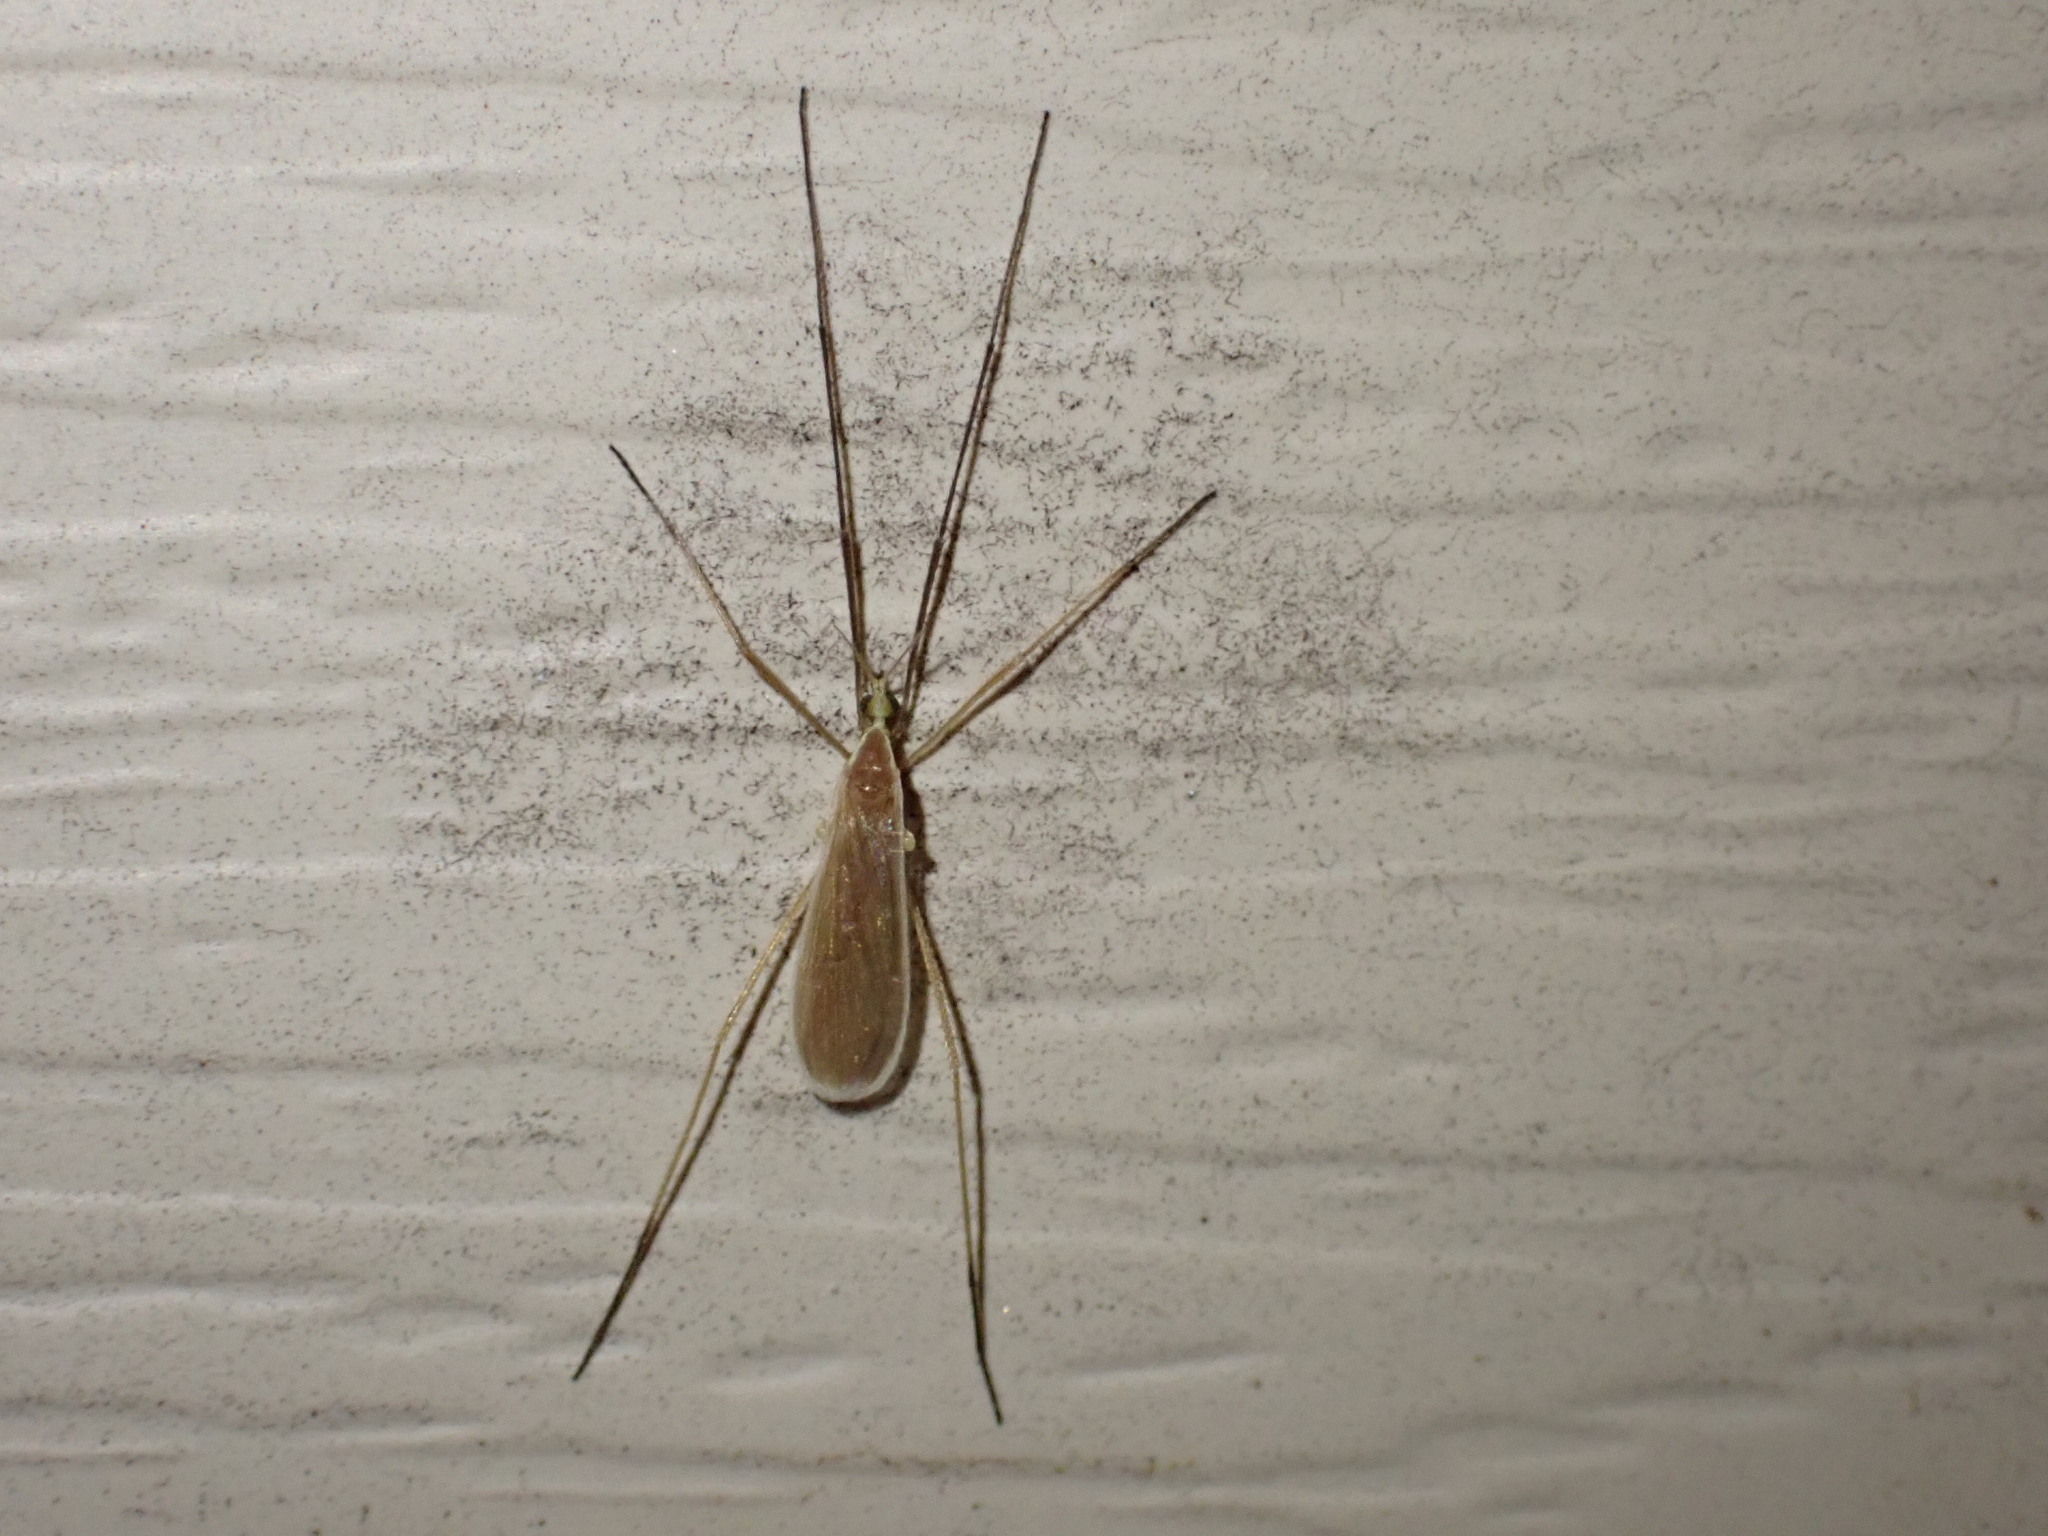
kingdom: Animalia
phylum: Arthropoda
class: Insecta
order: Diptera
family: Limoniidae
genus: Molophilus
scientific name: Molophilus
